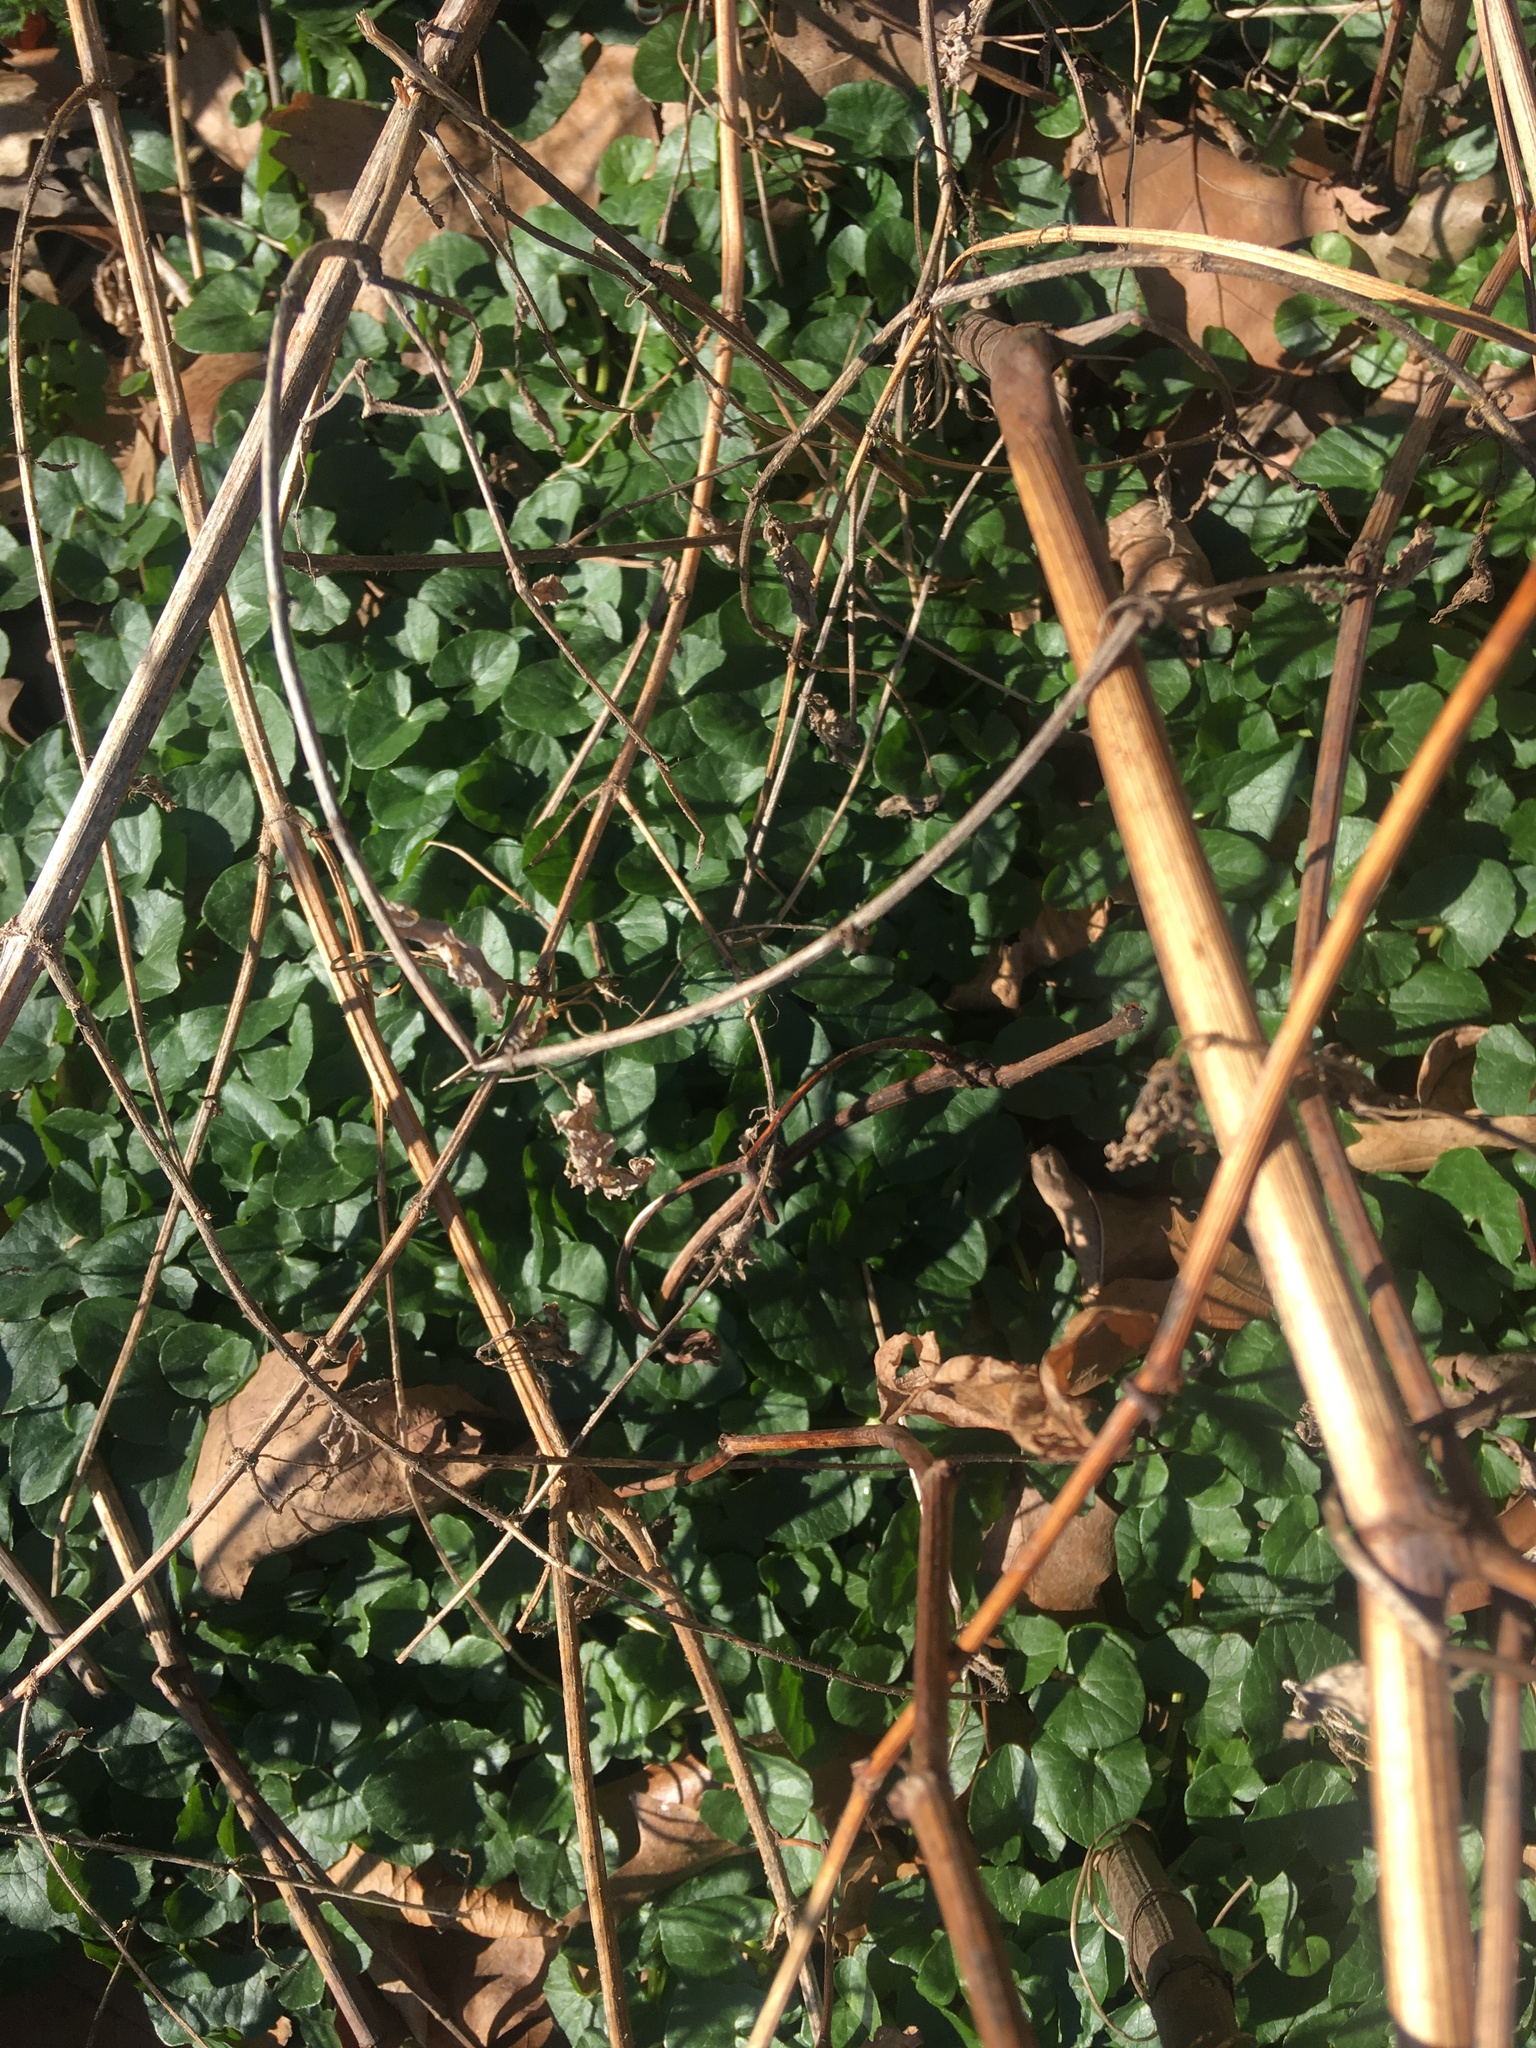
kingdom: Plantae
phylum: Tracheophyta
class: Magnoliopsida
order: Ranunculales
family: Ranunculaceae
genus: Ficaria
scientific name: Ficaria verna
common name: Lesser celandine
